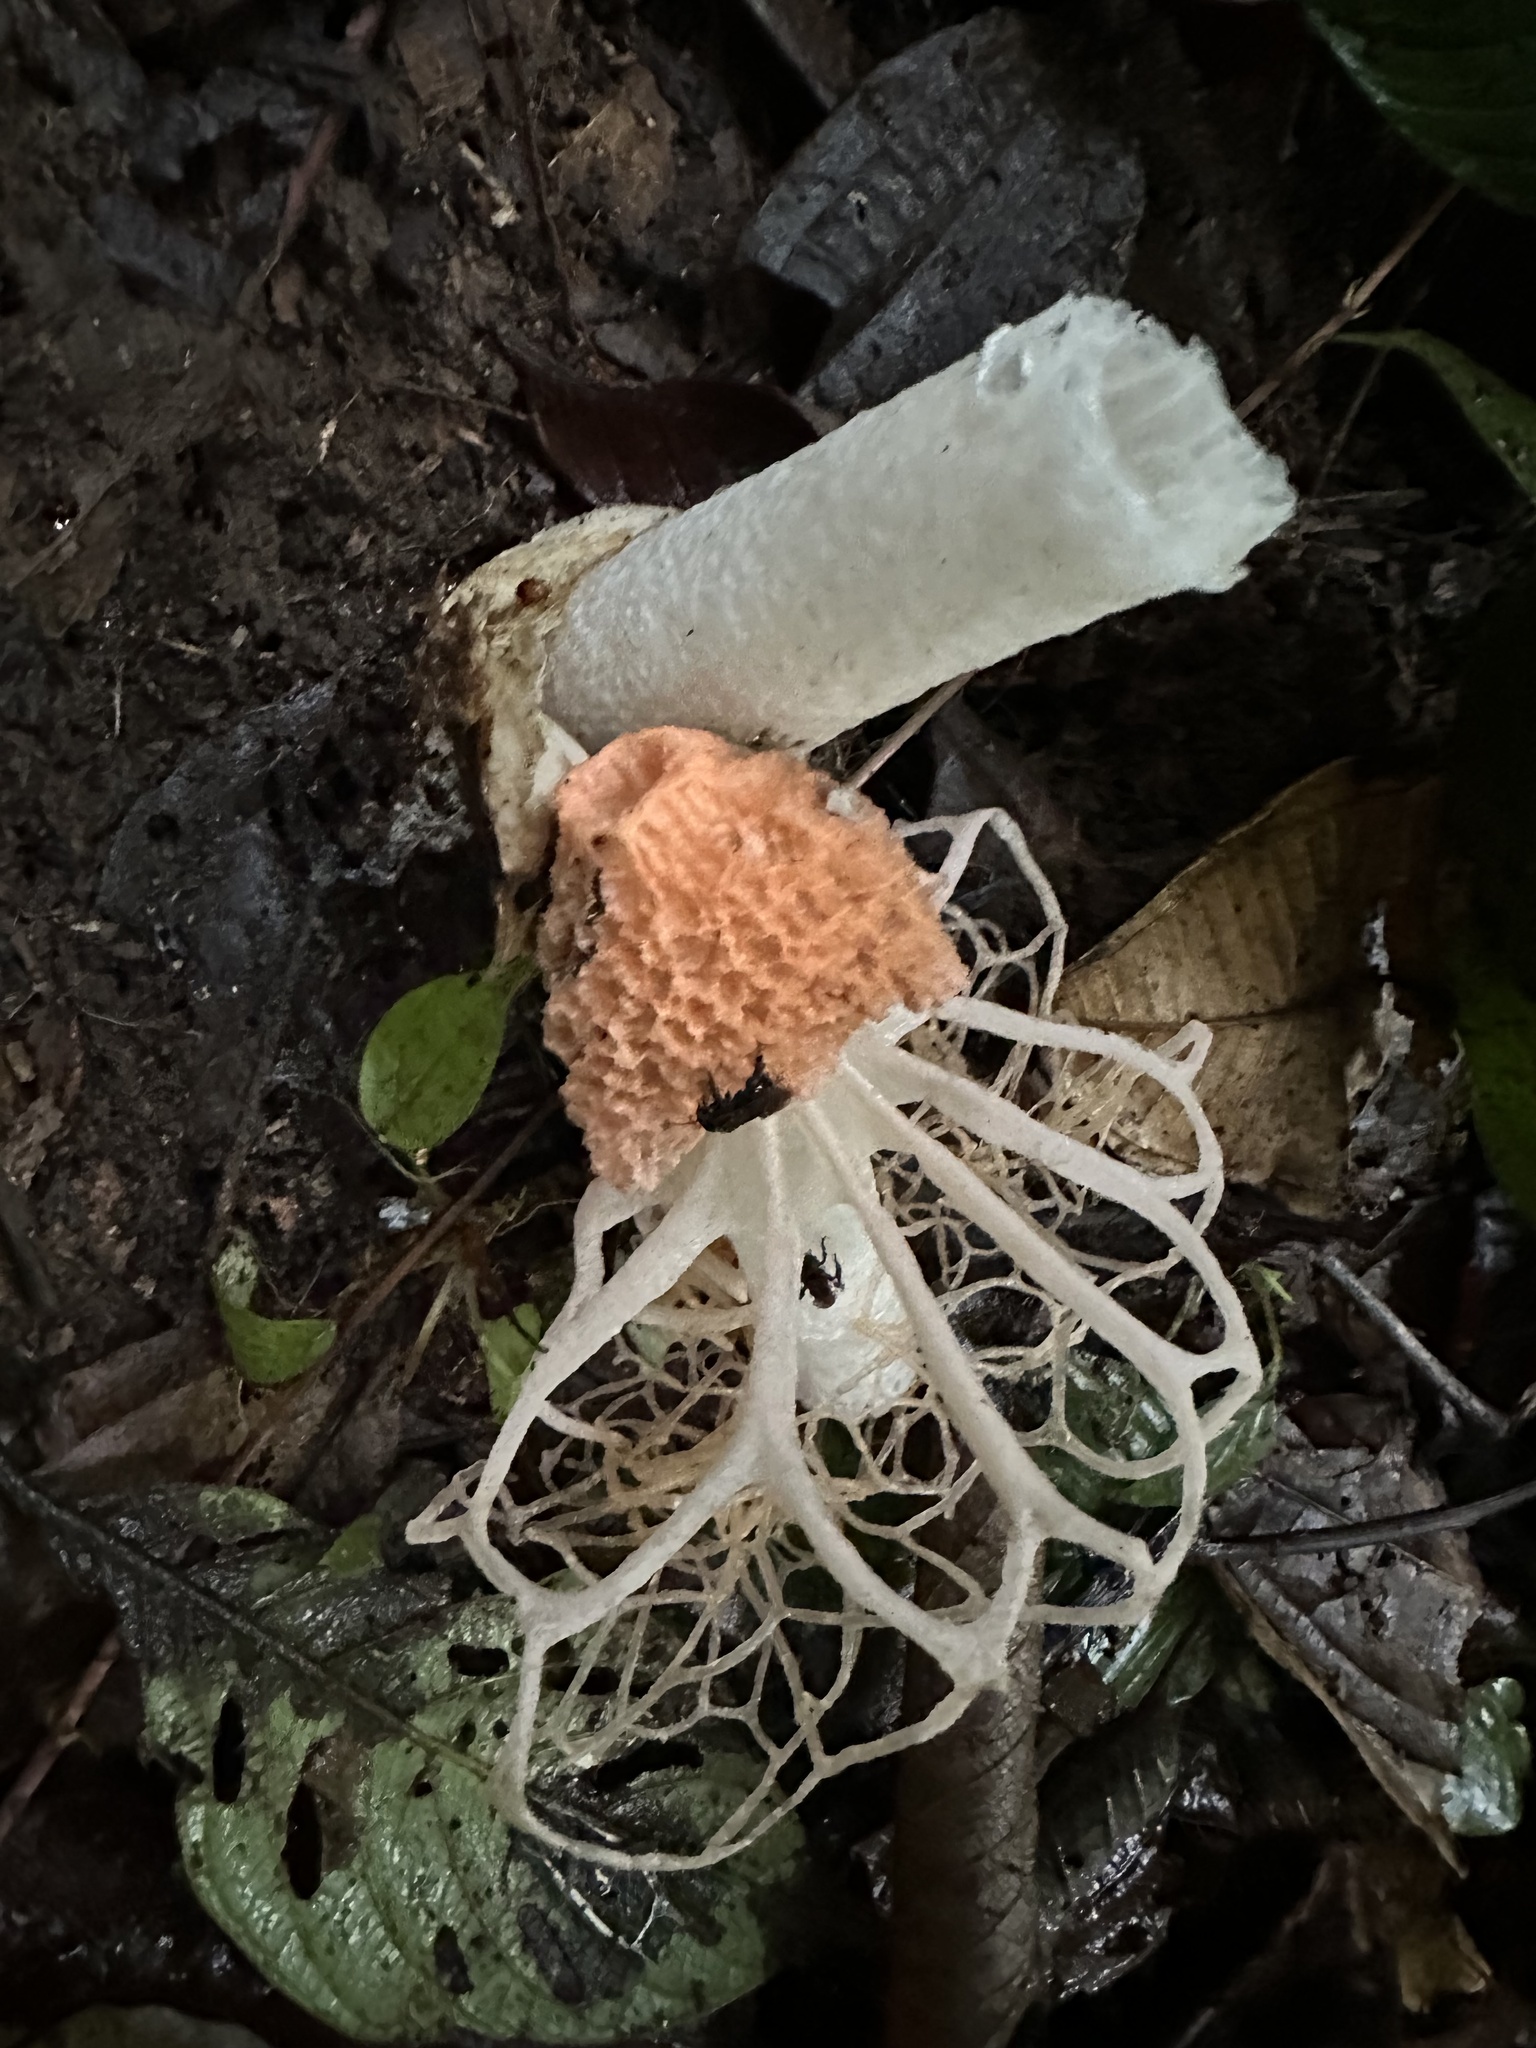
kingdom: Fungi
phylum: Basidiomycota
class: Agaricomycetes
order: Phallales
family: Phallaceae
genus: Phallus
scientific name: Phallus haitangensis
